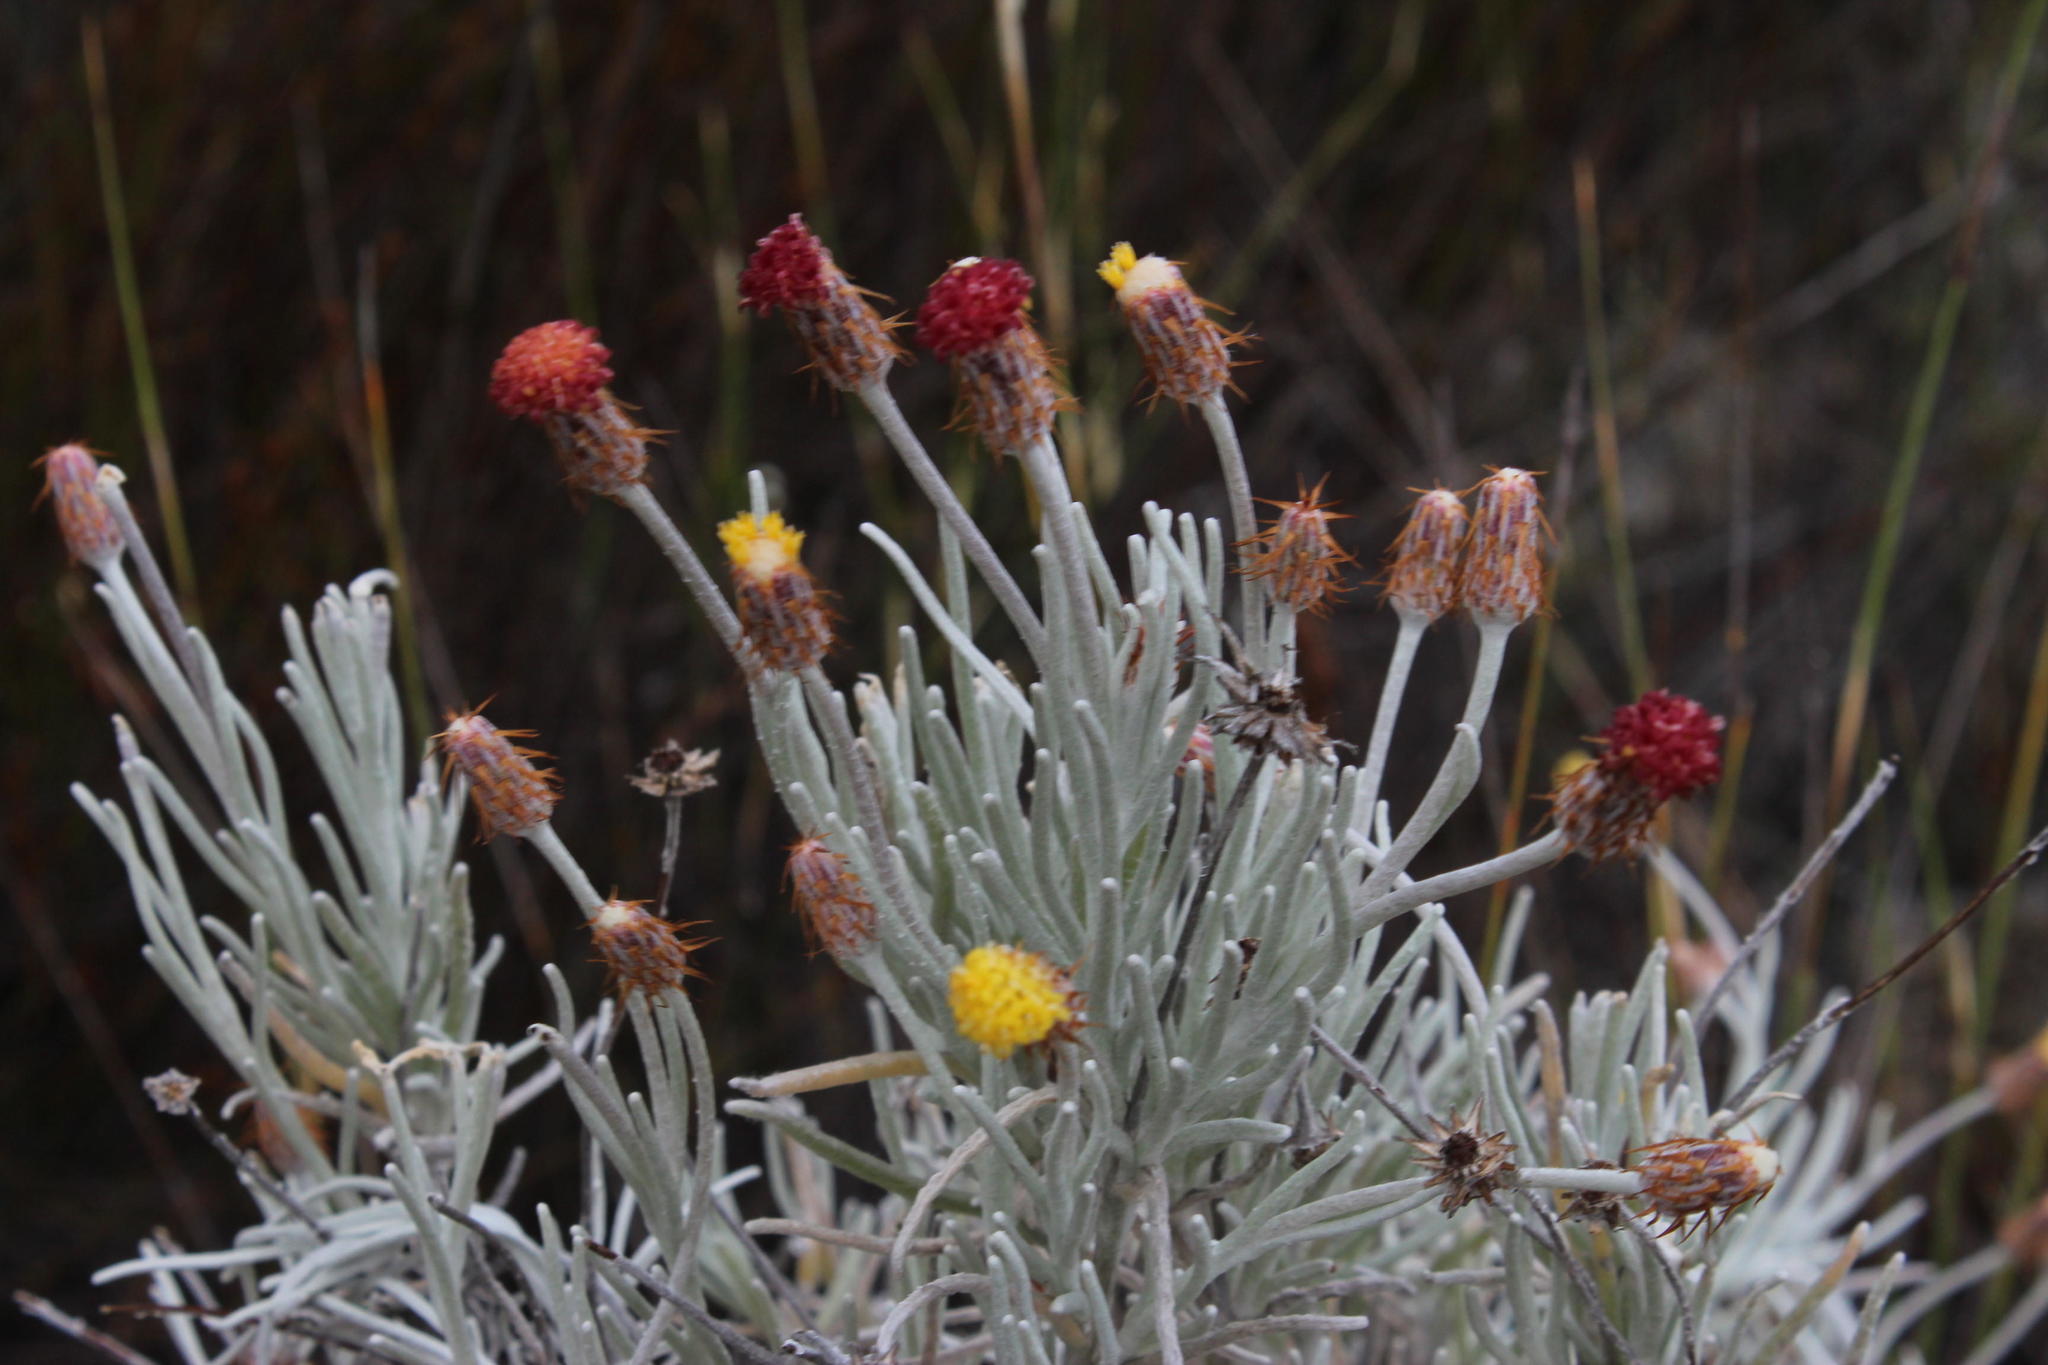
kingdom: Plantae
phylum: Tracheophyta
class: Magnoliopsida
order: Asterales
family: Asteraceae
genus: Syncarpha
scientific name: Syncarpha gnaphaloides
